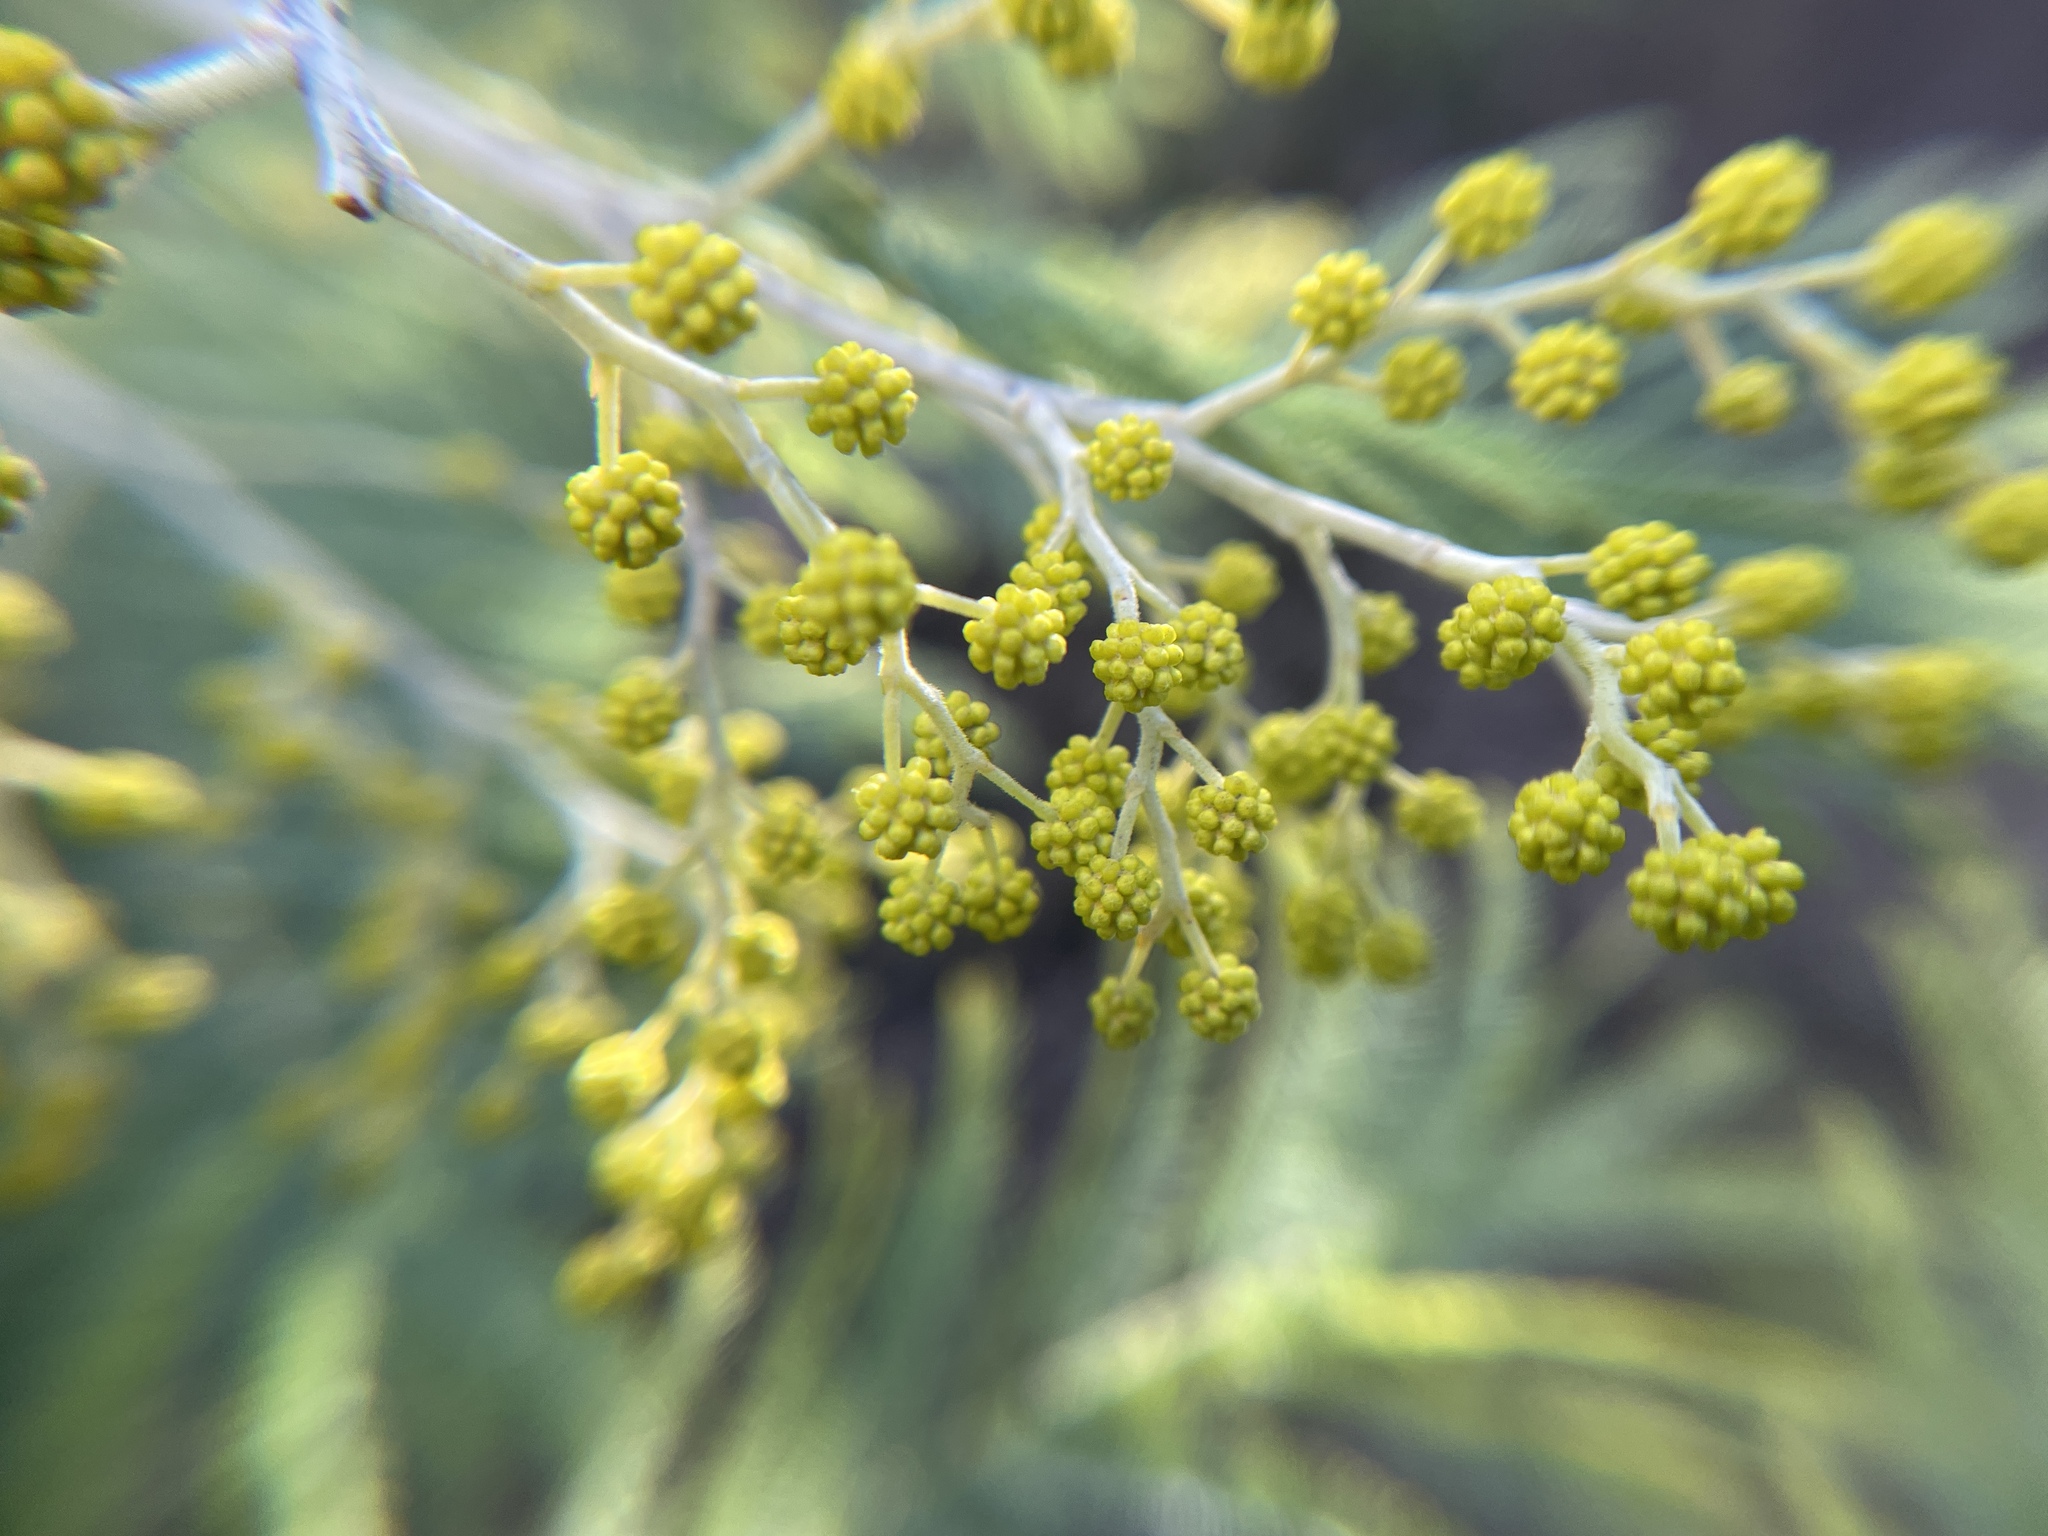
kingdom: Plantae
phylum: Tracheophyta
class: Magnoliopsida
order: Fabales
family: Fabaceae
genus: Acacia
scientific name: Acacia dealbata
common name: Silver wattle
